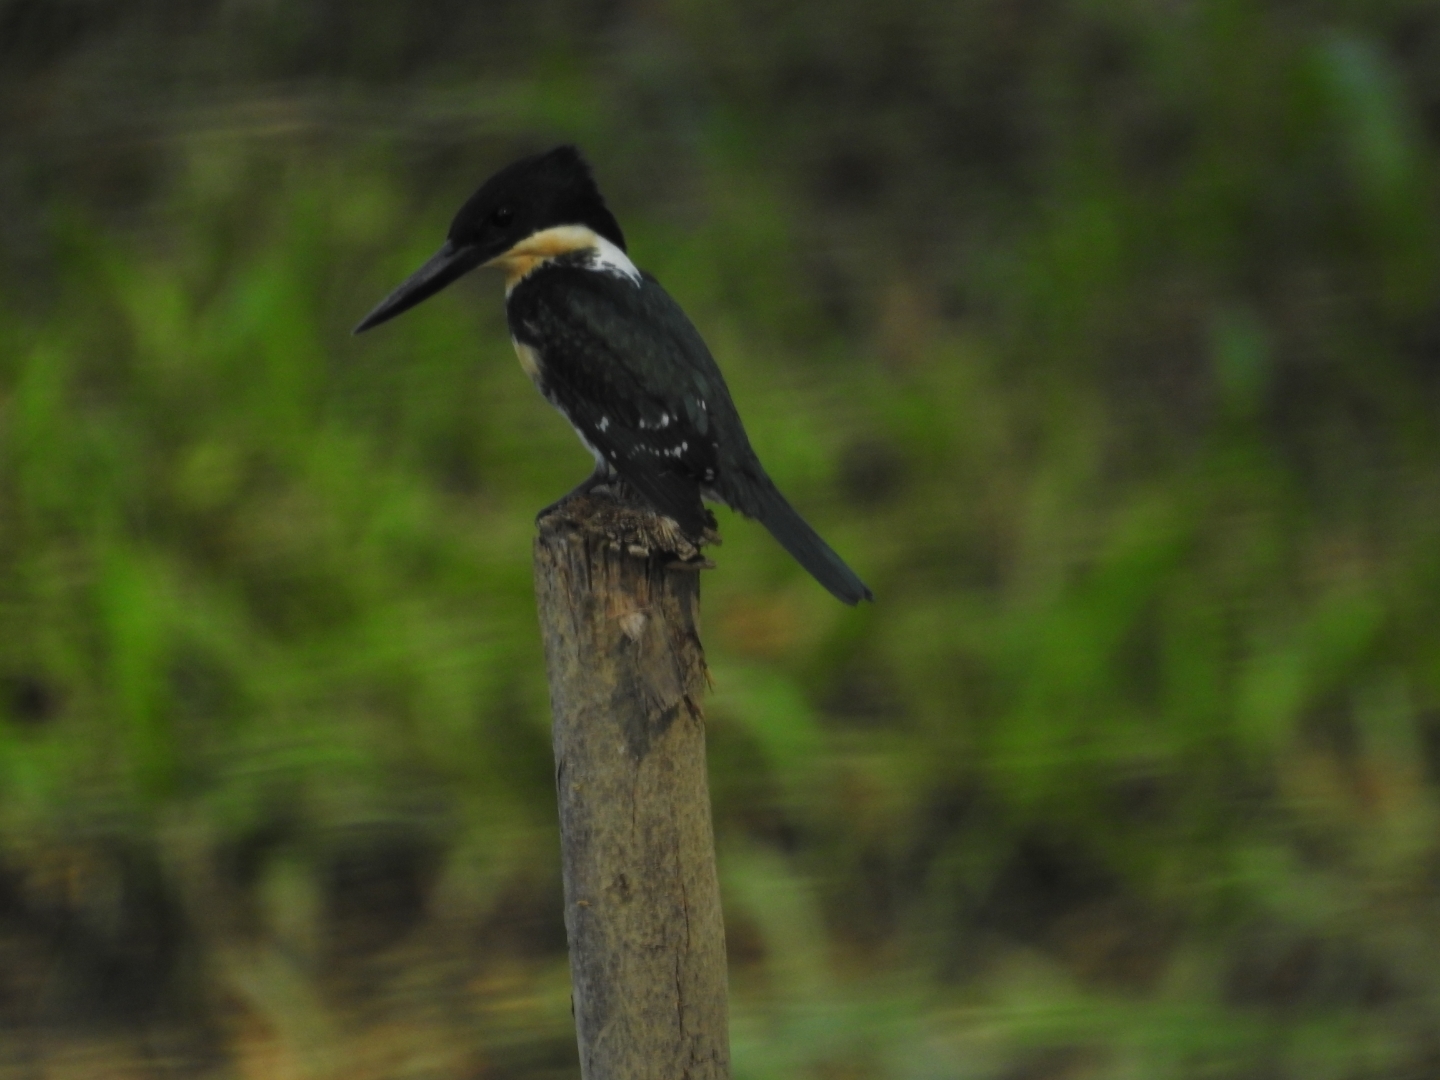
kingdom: Animalia
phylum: Chordata
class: Aves
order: Coraciiformes
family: Alcedinidae
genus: Chloroceryle
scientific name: Chloroceryle americana
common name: Green kingfisher
